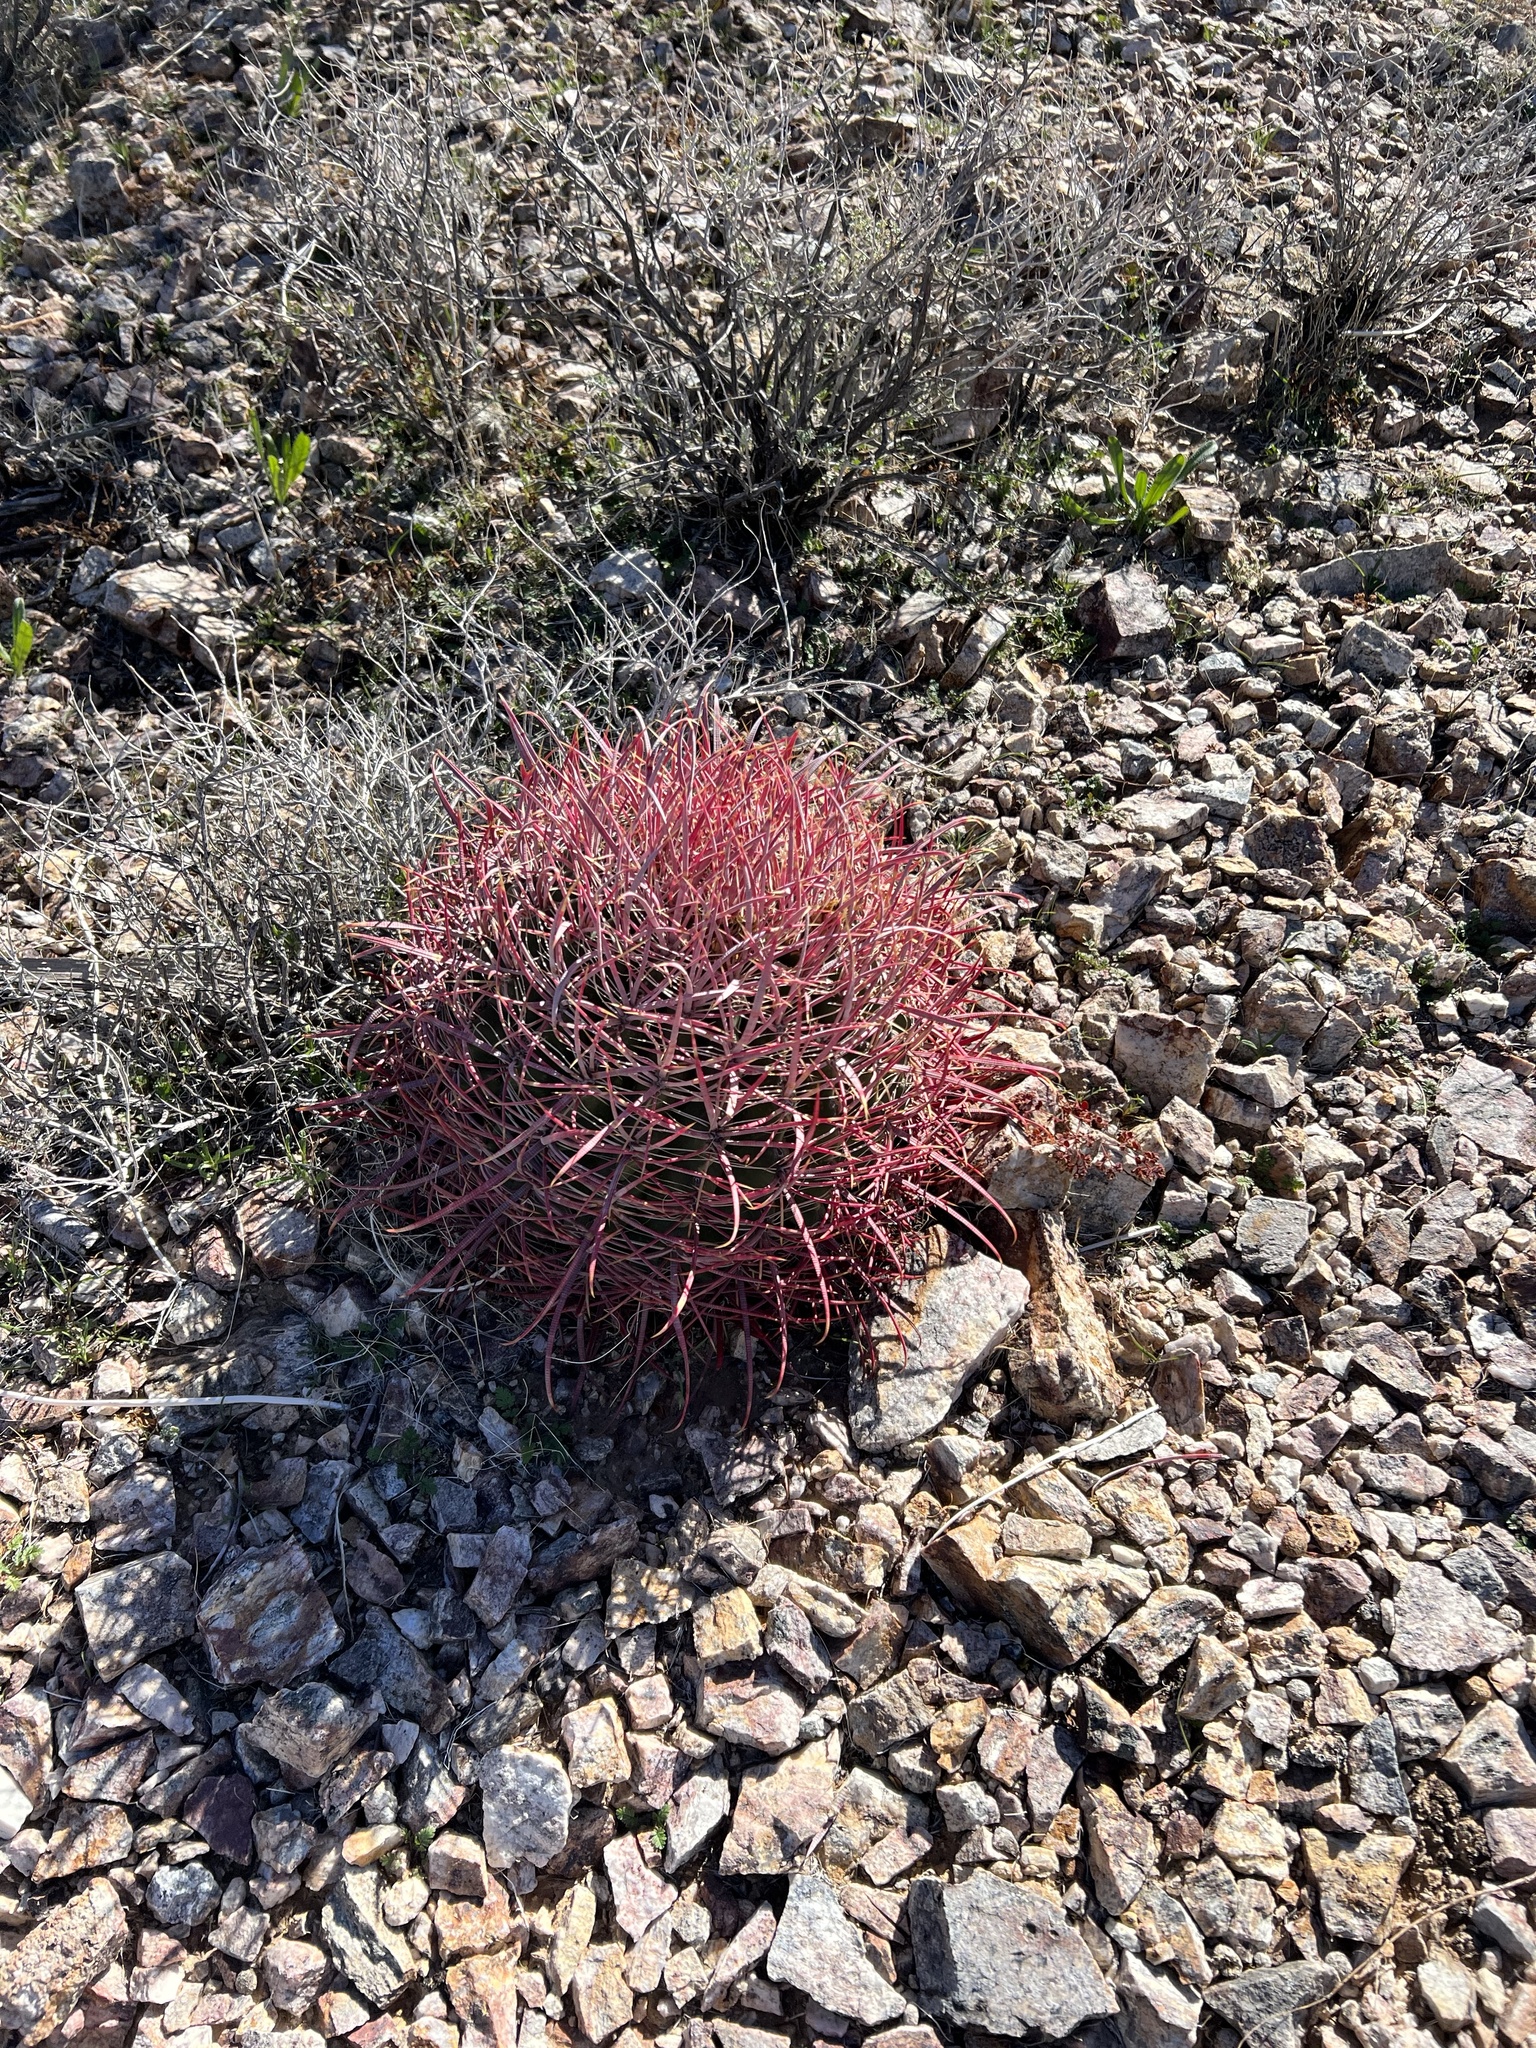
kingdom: Plantae
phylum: Tracheophyta
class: Magnoliopsida
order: Caryophyllales
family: Cactaceae
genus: Ferocactus
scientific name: Ferocactus cylindraceus
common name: California barrel cactus
